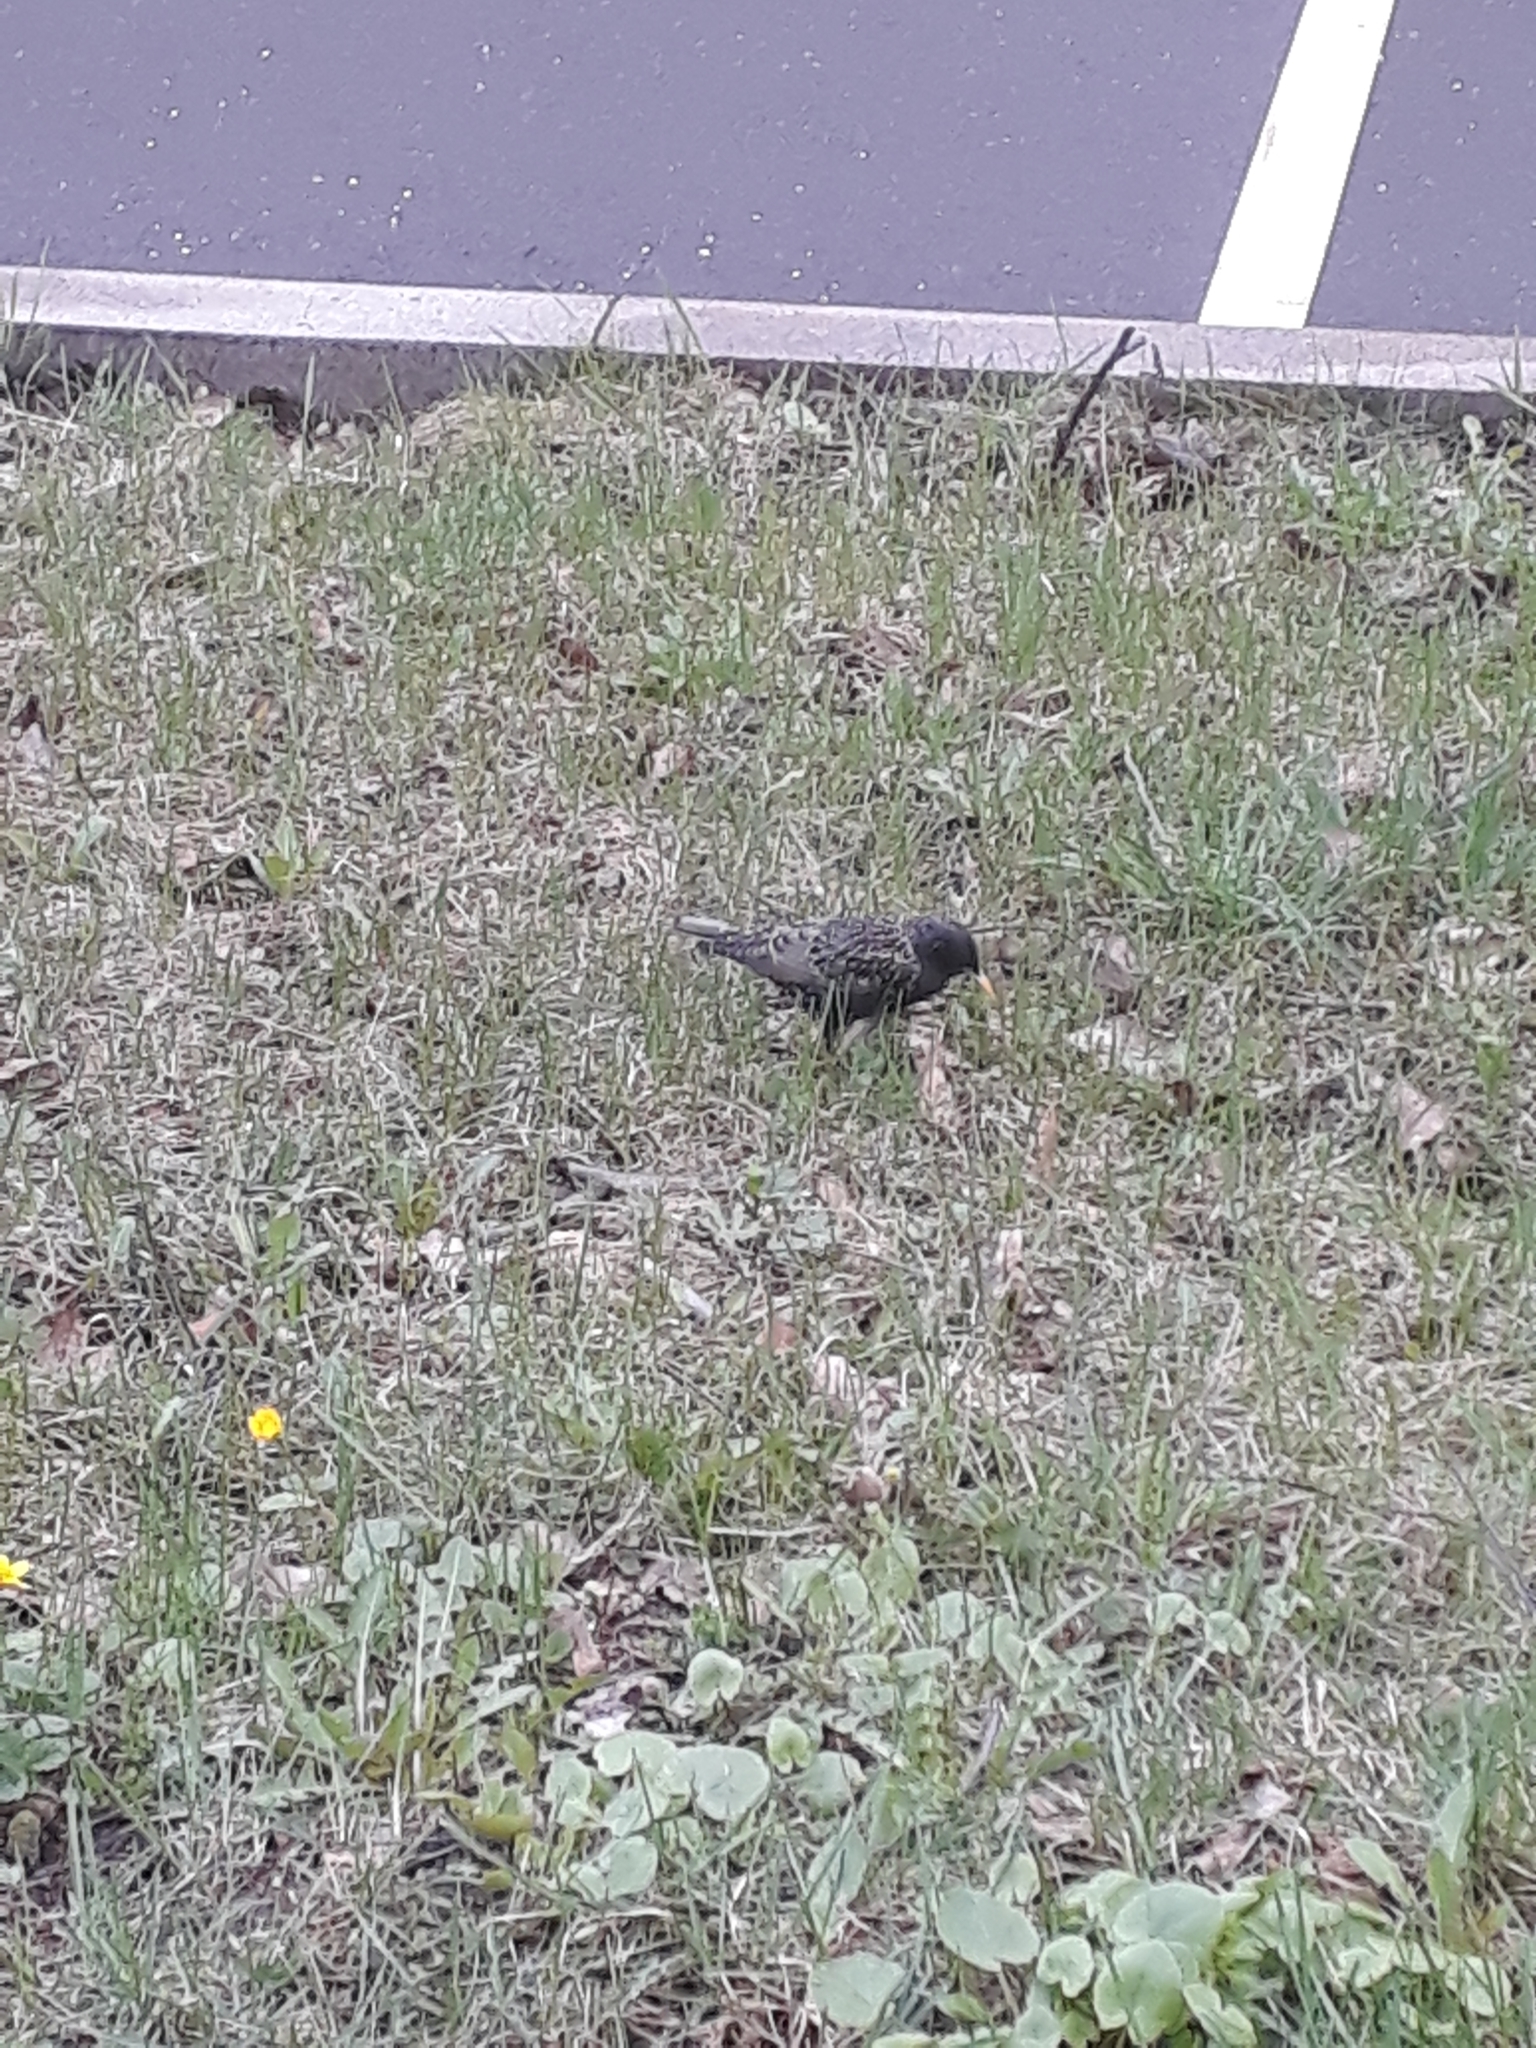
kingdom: Animalia
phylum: Chordata
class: Aves
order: Passeriformes
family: Sturnidae
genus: Sturnus
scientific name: Sturnus vulgaris
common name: Common starling
